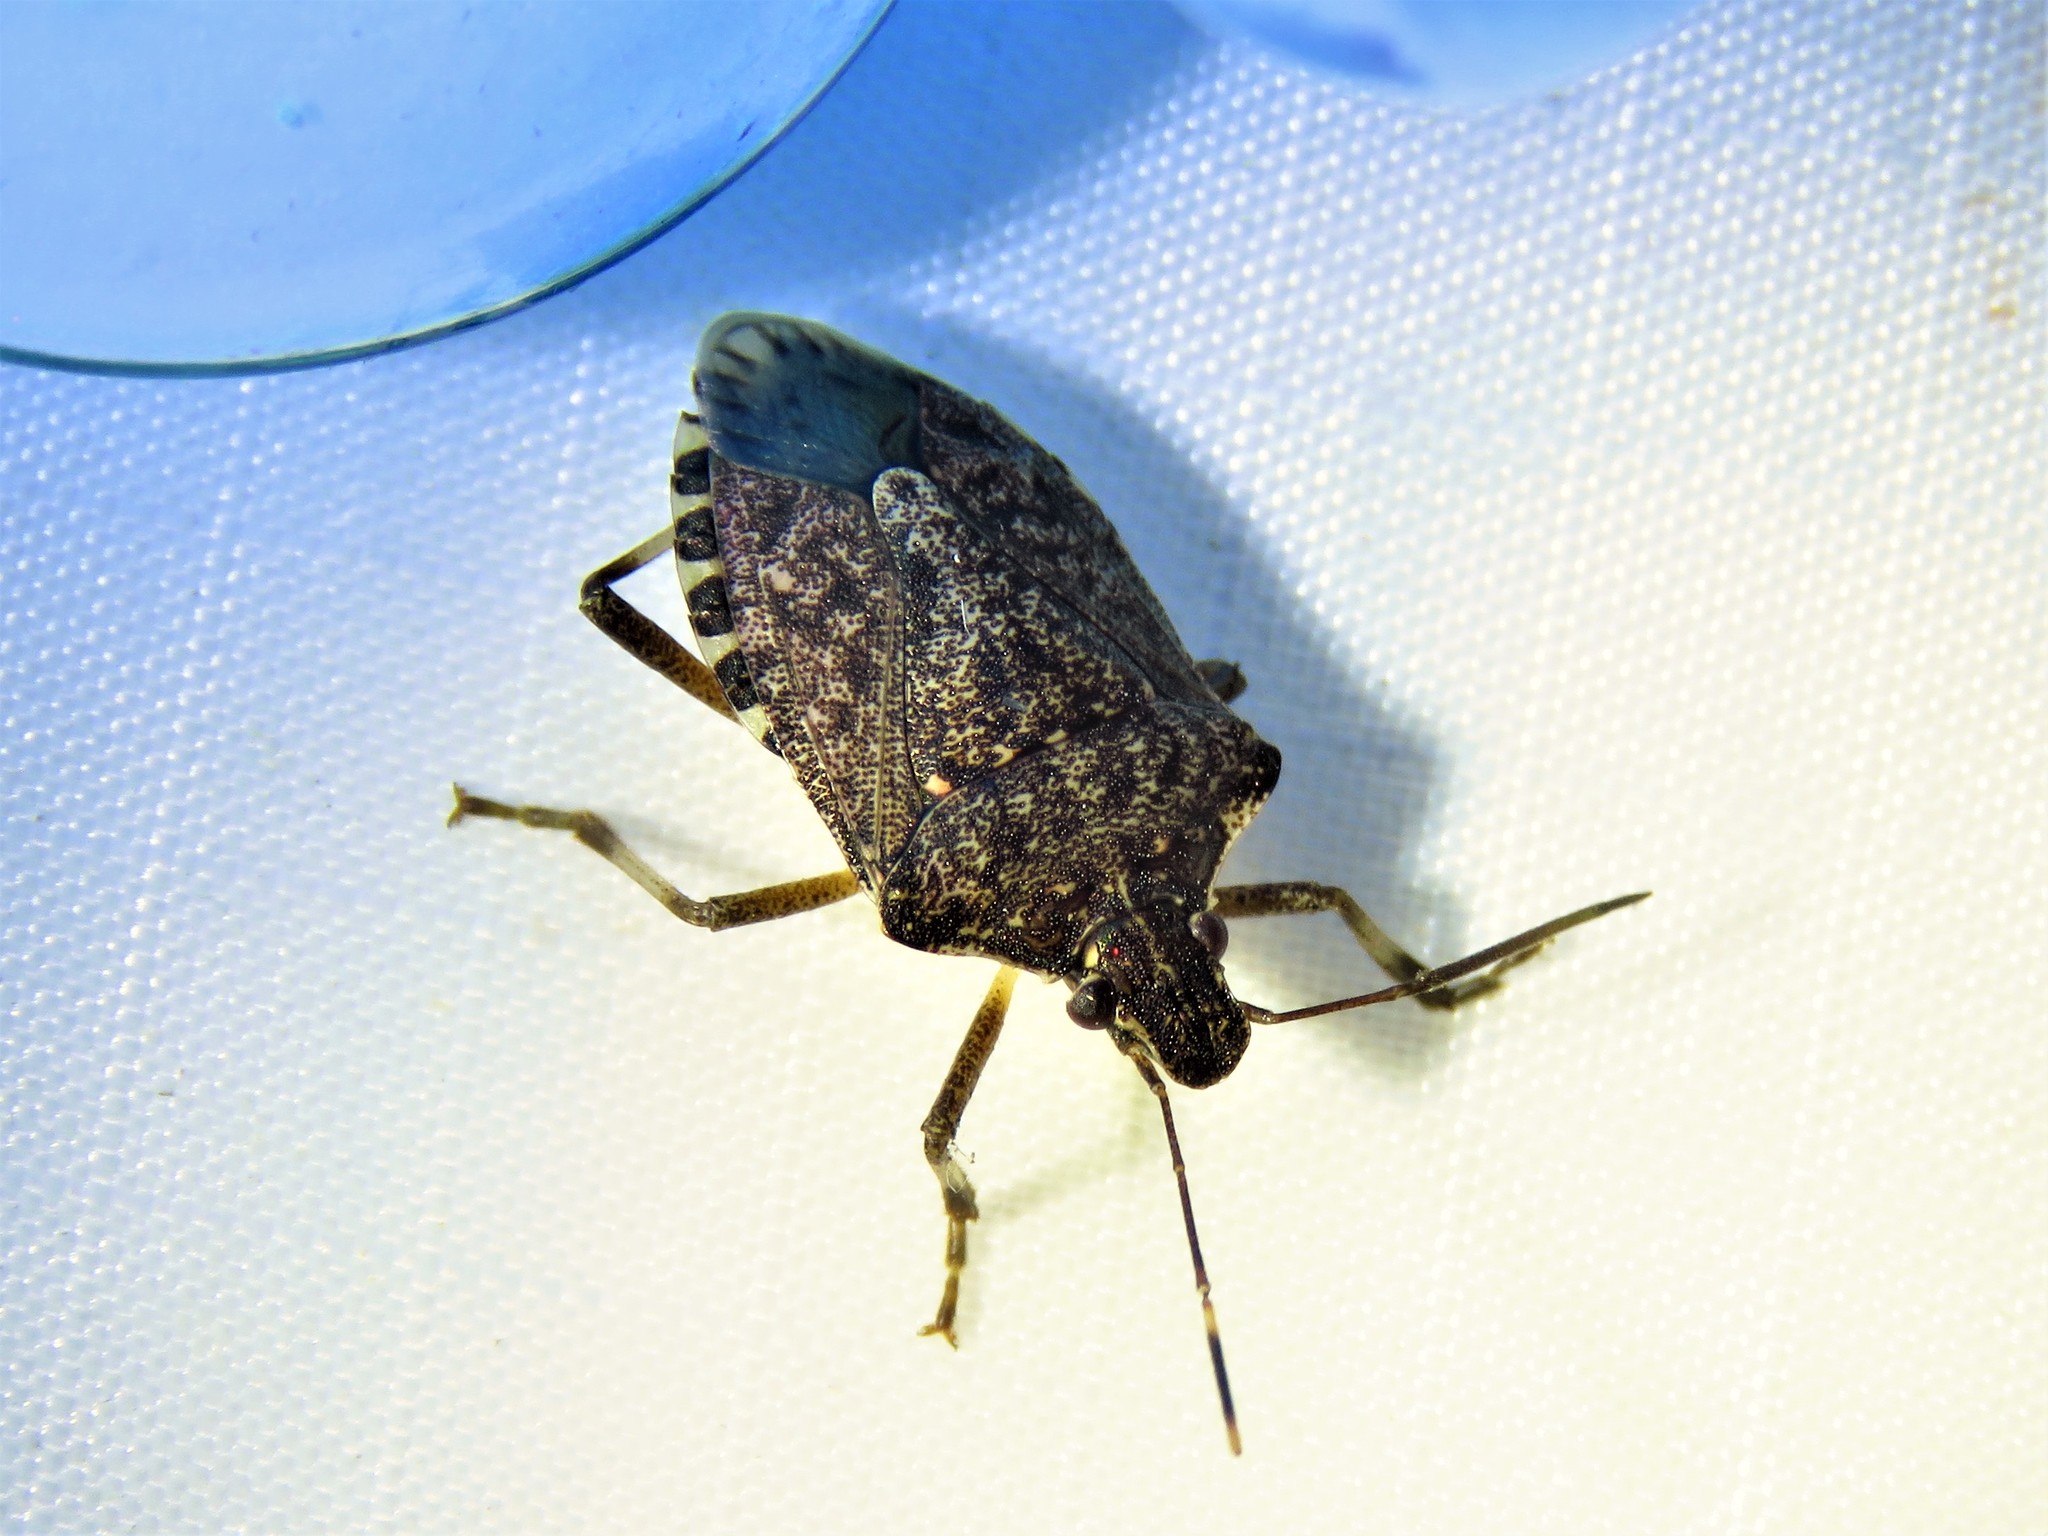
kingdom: Animalia
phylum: Arthropoda
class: Insecta
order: Hemiptera
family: Pentatomidae
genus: Halyomorpha
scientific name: Halyomorpha halys
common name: Brown marmorated stink bug
